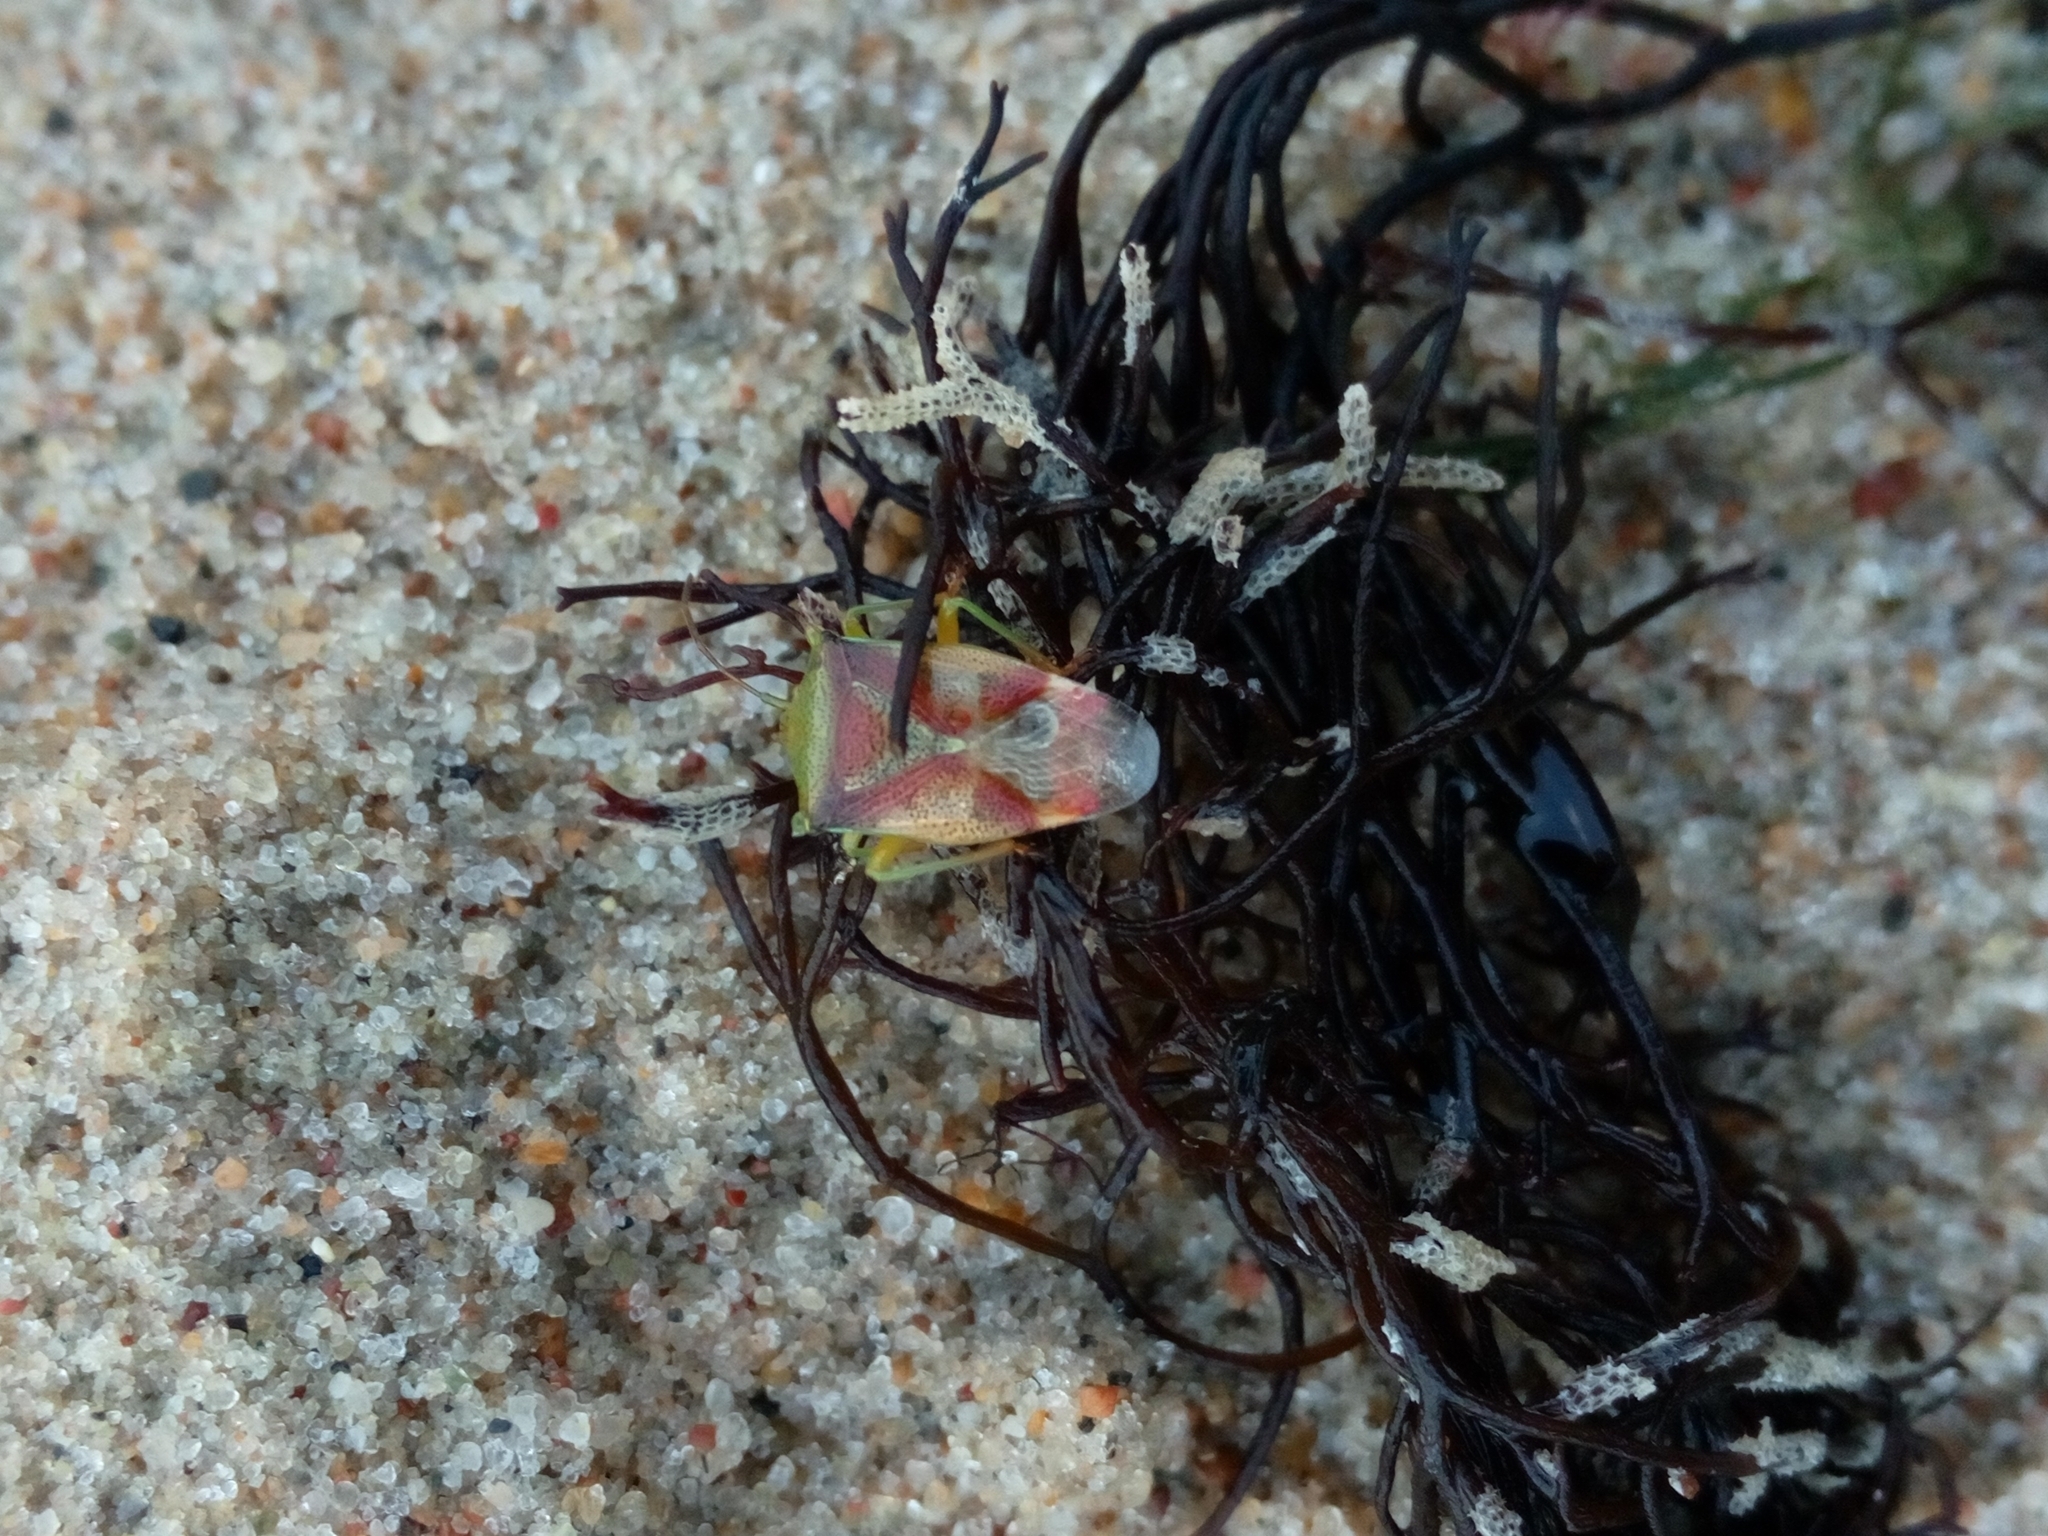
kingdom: Animalia
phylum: Arthropoda
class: Insecta
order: Hemiptera
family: Acanthosomatidae
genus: Elasmostethus
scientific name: Elasmostethus
